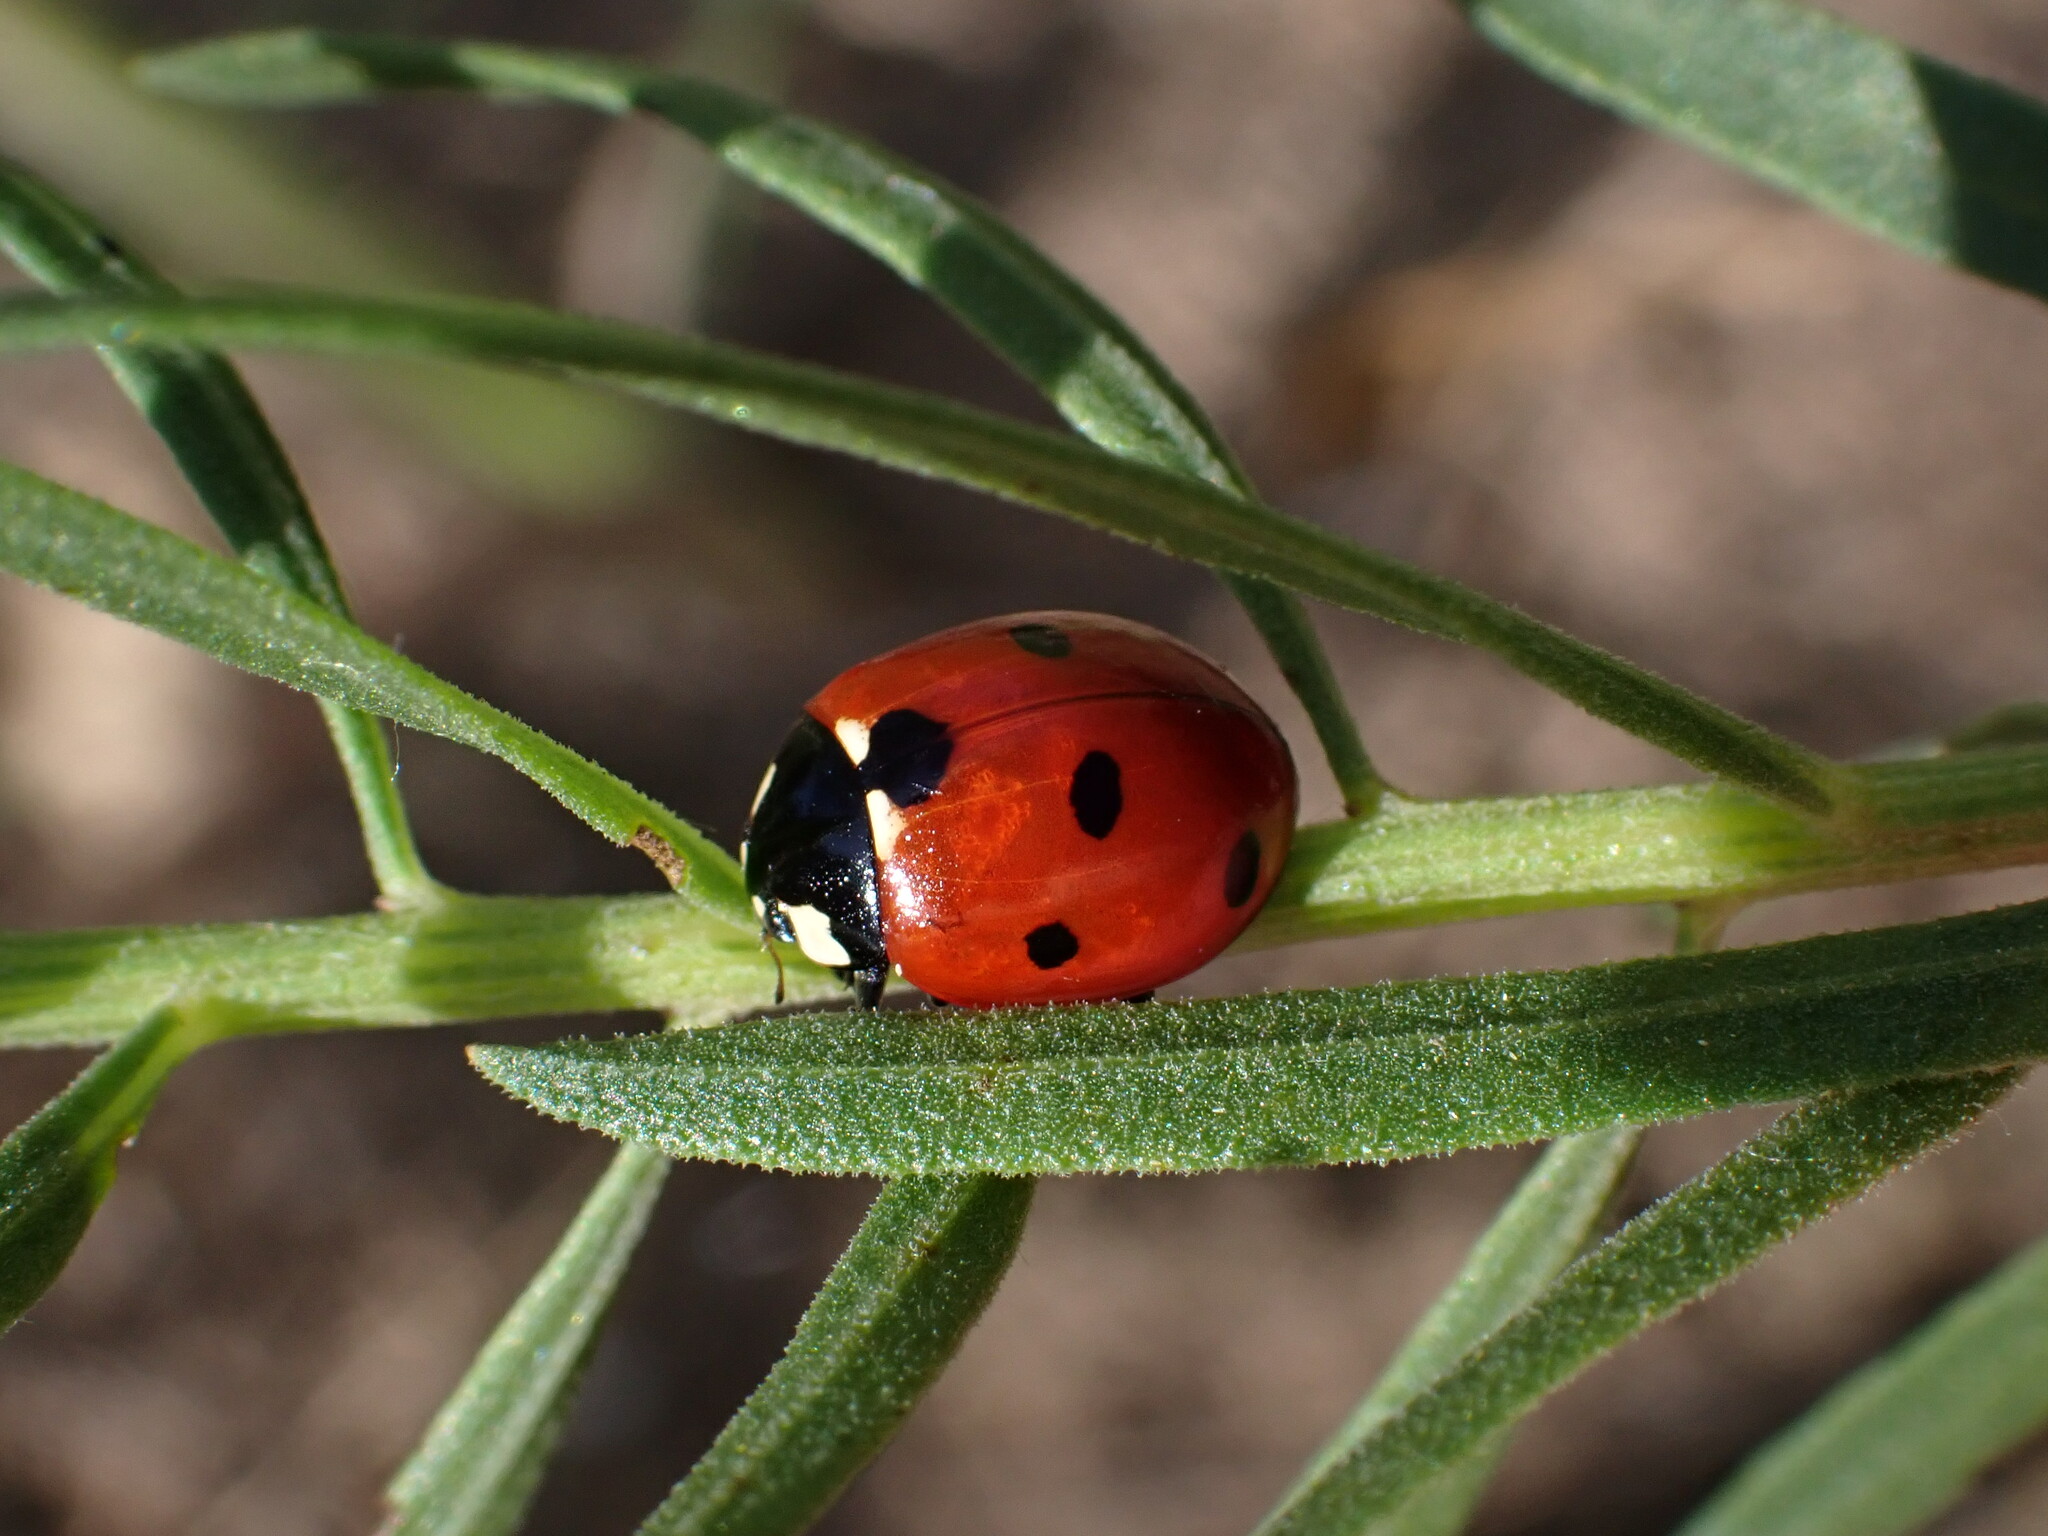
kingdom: Animalia
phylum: Arthropoda
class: Insecta
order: Coleoptera
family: Coccinellidae
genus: Coccinella
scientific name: Coccinella septempunctata
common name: Sevenspotted lady beetle
